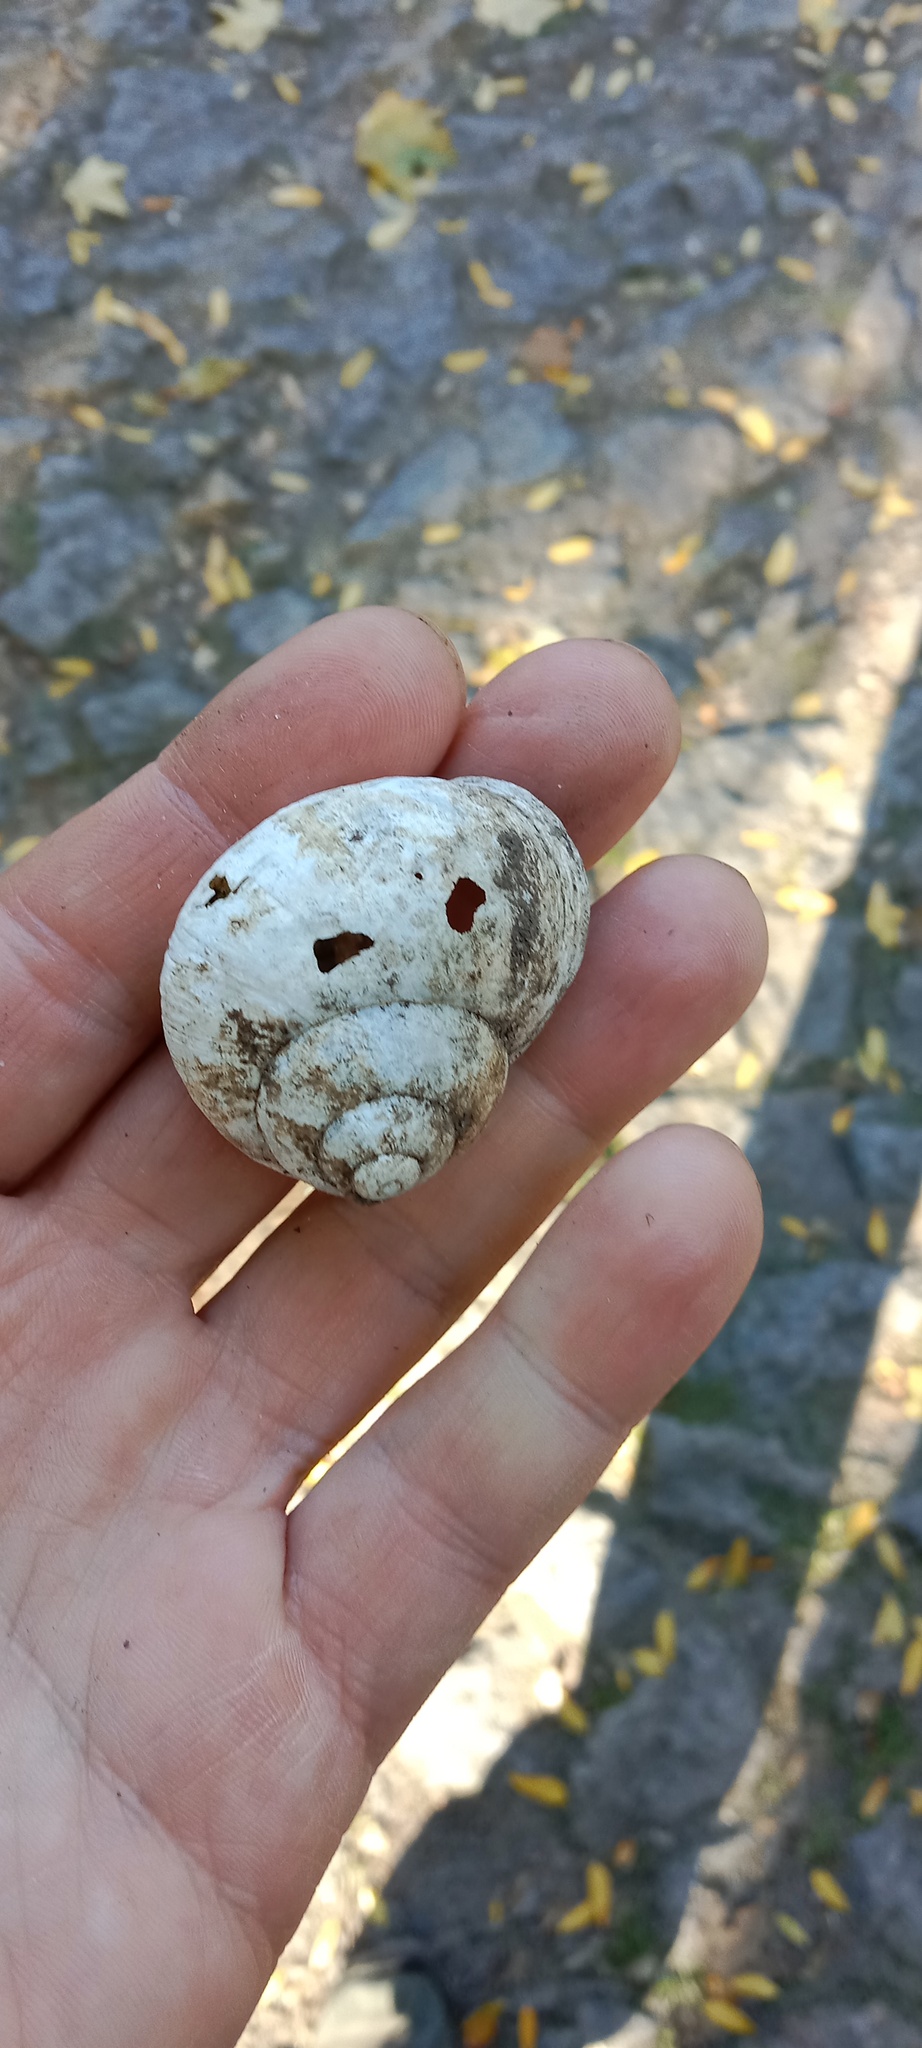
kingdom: Animalia
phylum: Mollusca
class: Gastropoda
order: Stylommatophora
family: Helicidae
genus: Helix
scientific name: Helix pomatia
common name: Roman snail
